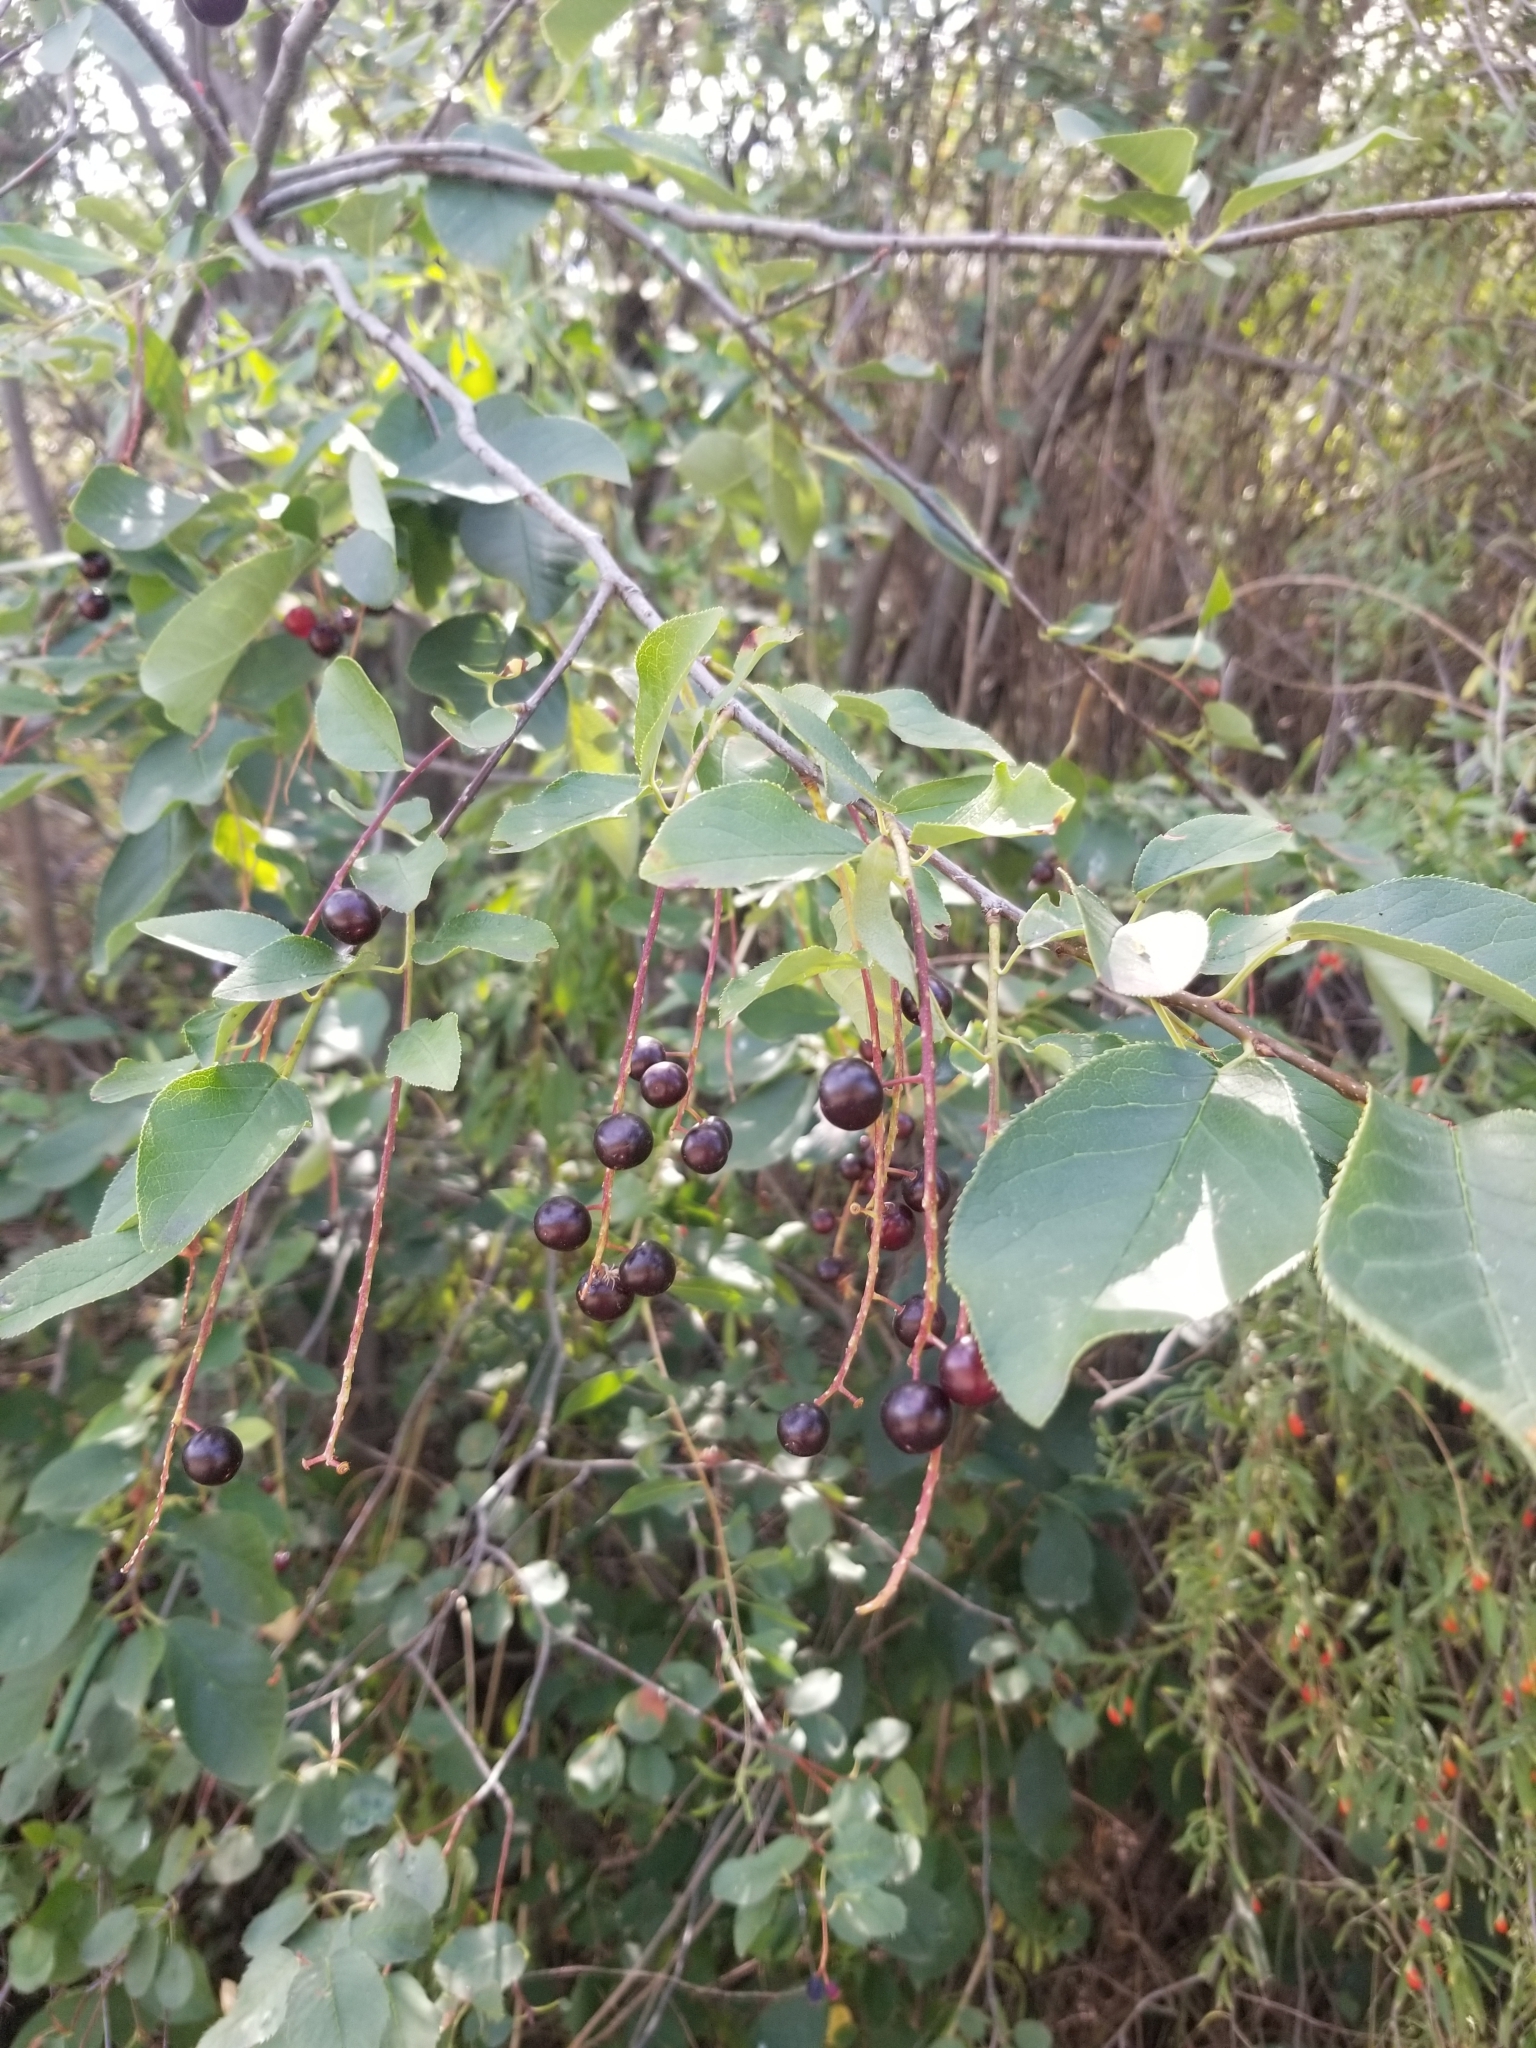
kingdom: Plantae
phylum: Tracheophyta
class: Magnoliopsida
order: Rosales
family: Rosaceae
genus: Prunus
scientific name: Prunus virginiana
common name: Chokecherry
